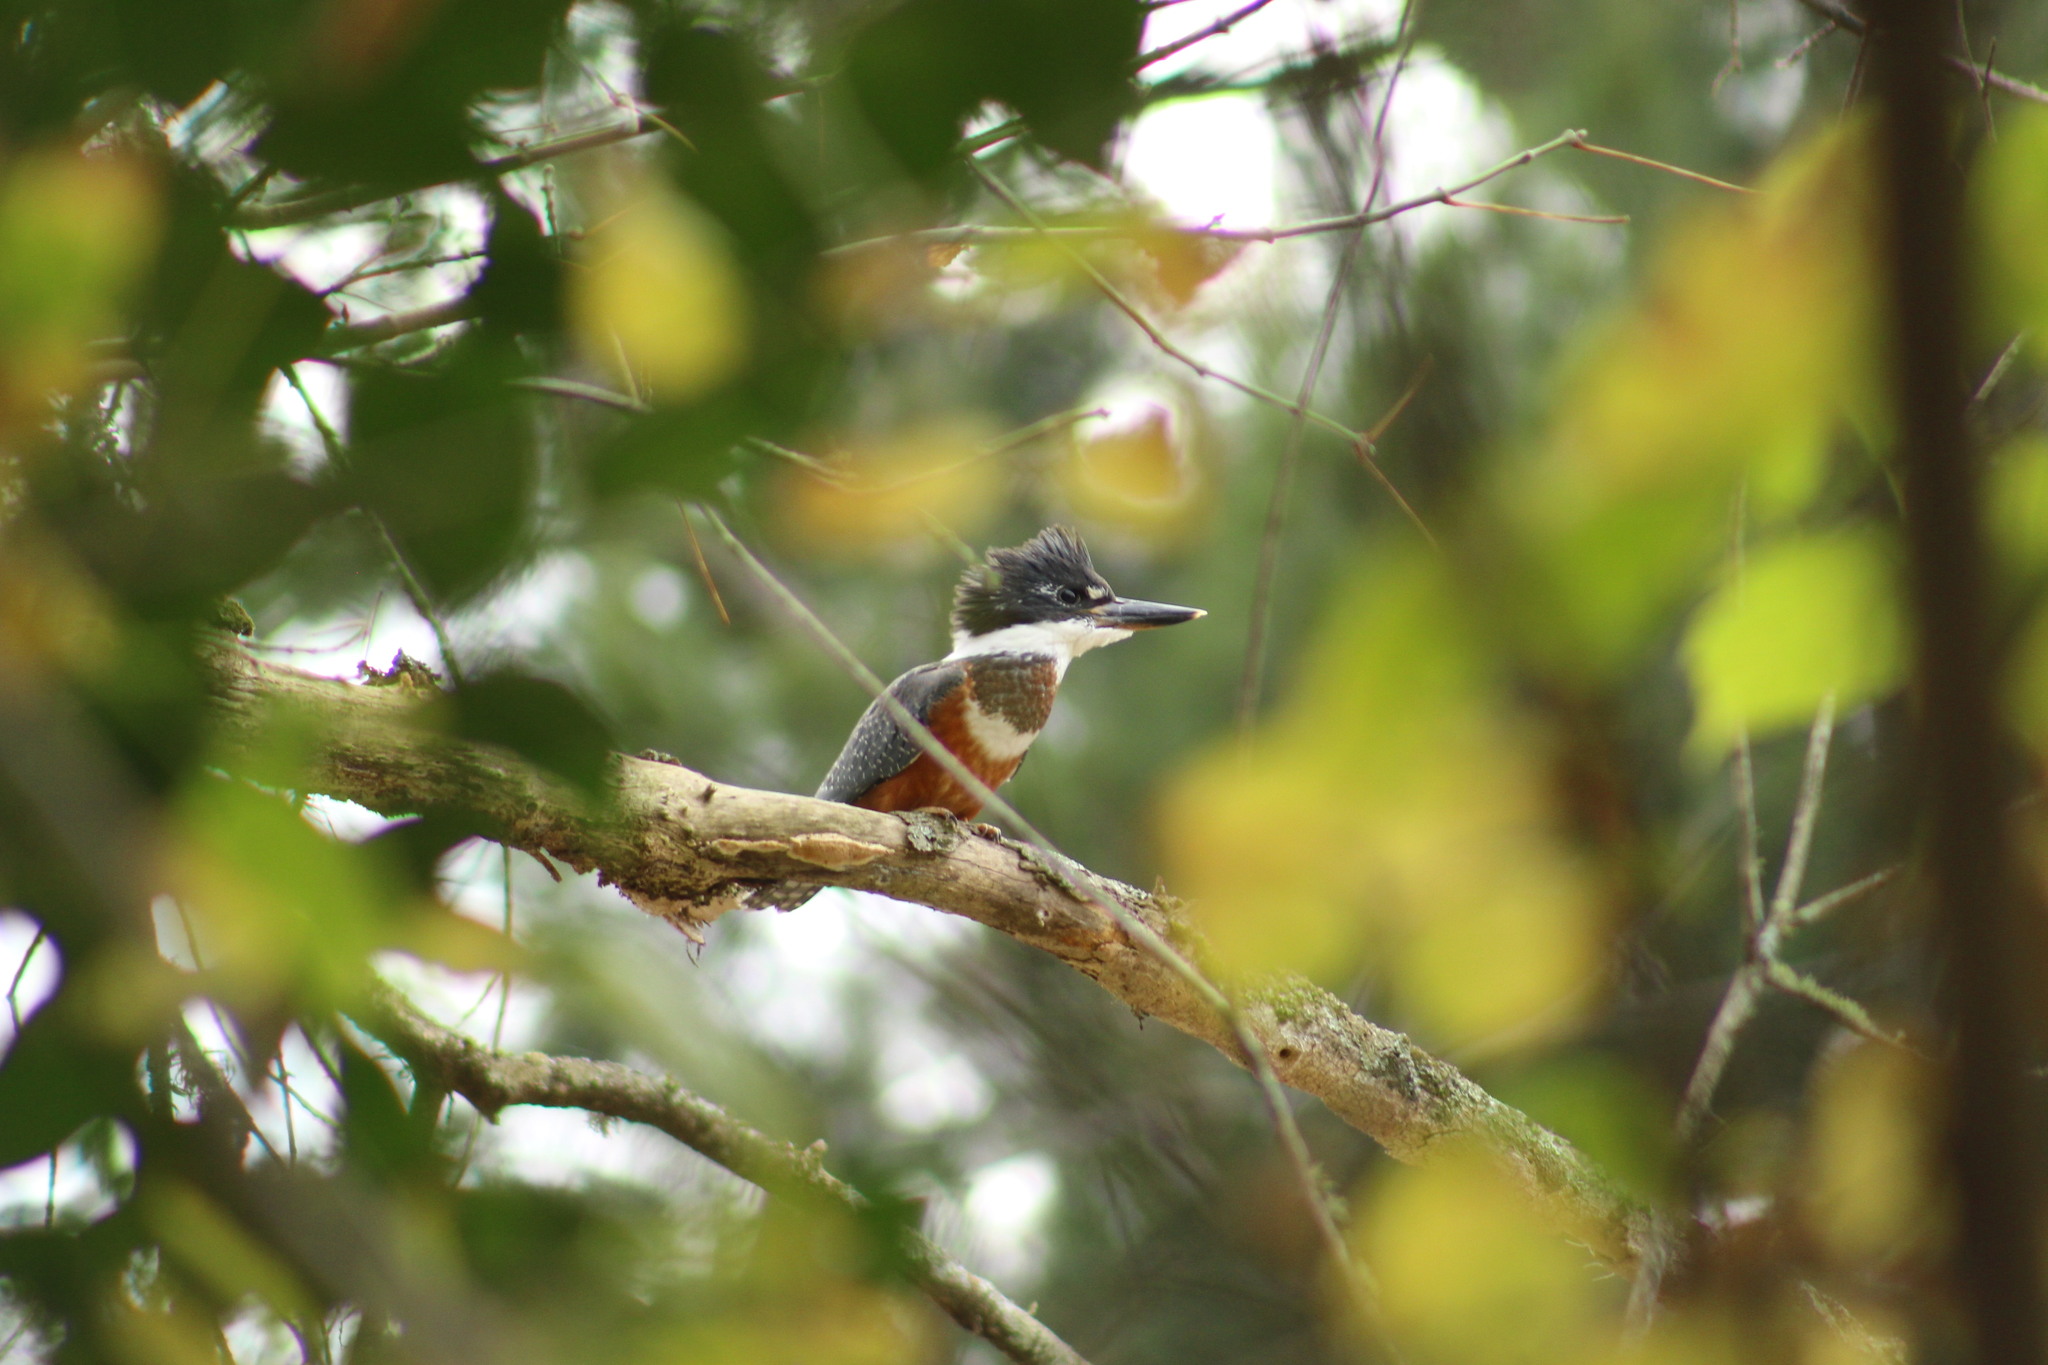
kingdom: Animalia
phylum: Chordata
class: Aves
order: Coraciiformes
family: Alcedinidae
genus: Megaceryle
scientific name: Megaceryle torquata
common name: Ringed kingfisher
